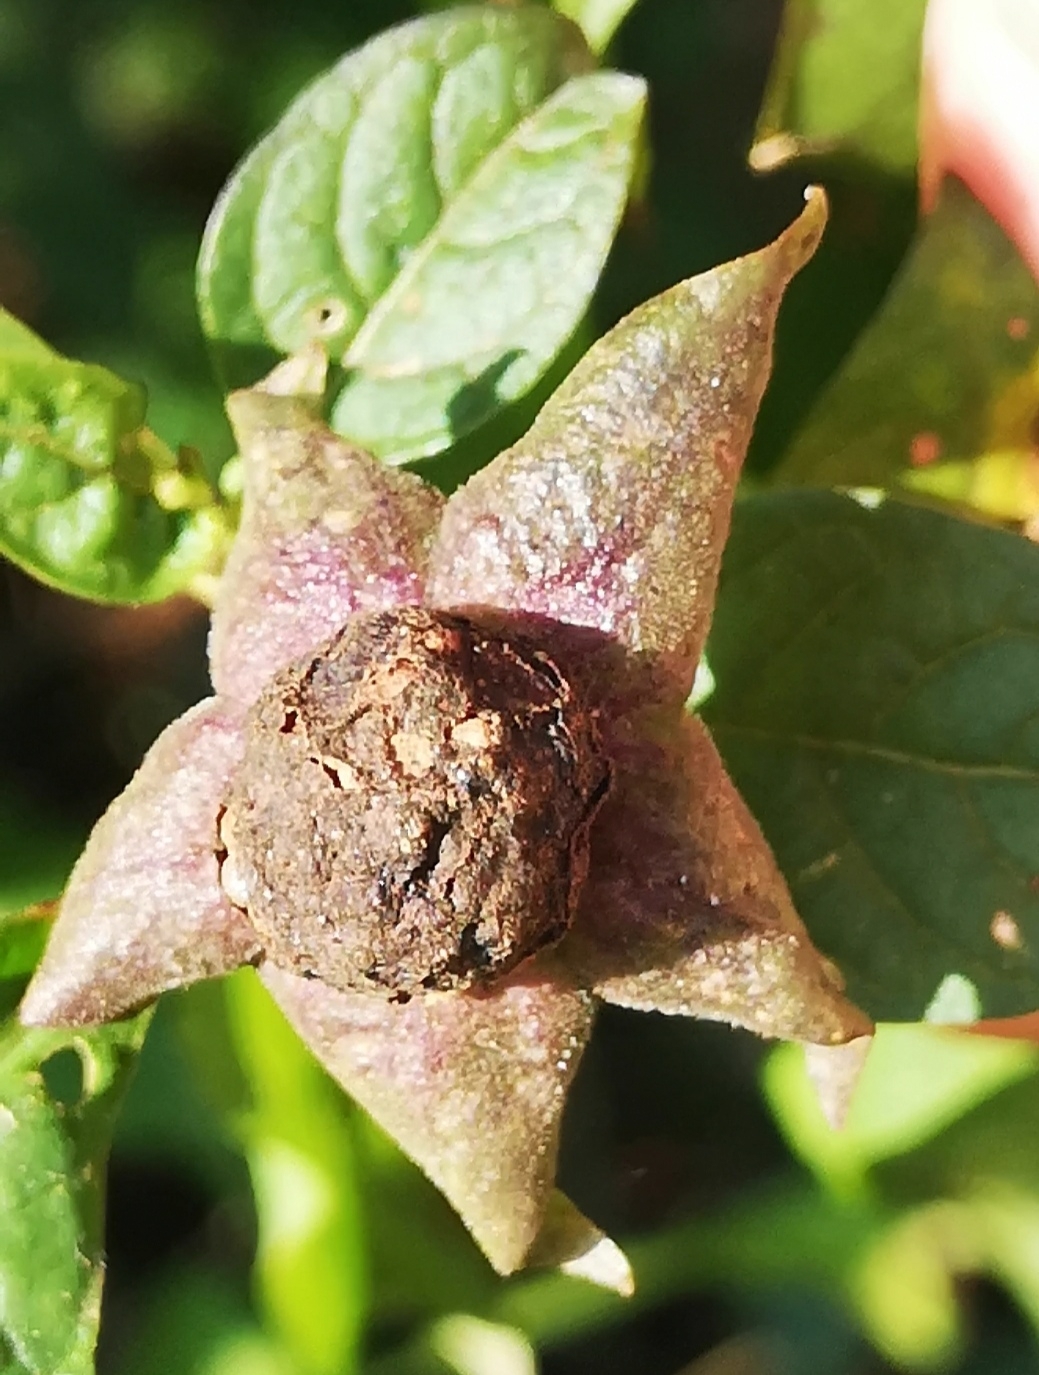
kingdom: Plantae
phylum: Tracheophyta
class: Magnoliopsida
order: Solanales
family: Solanaceae
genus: Atropa
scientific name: Atropa belladonna
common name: Deadly nightshade
